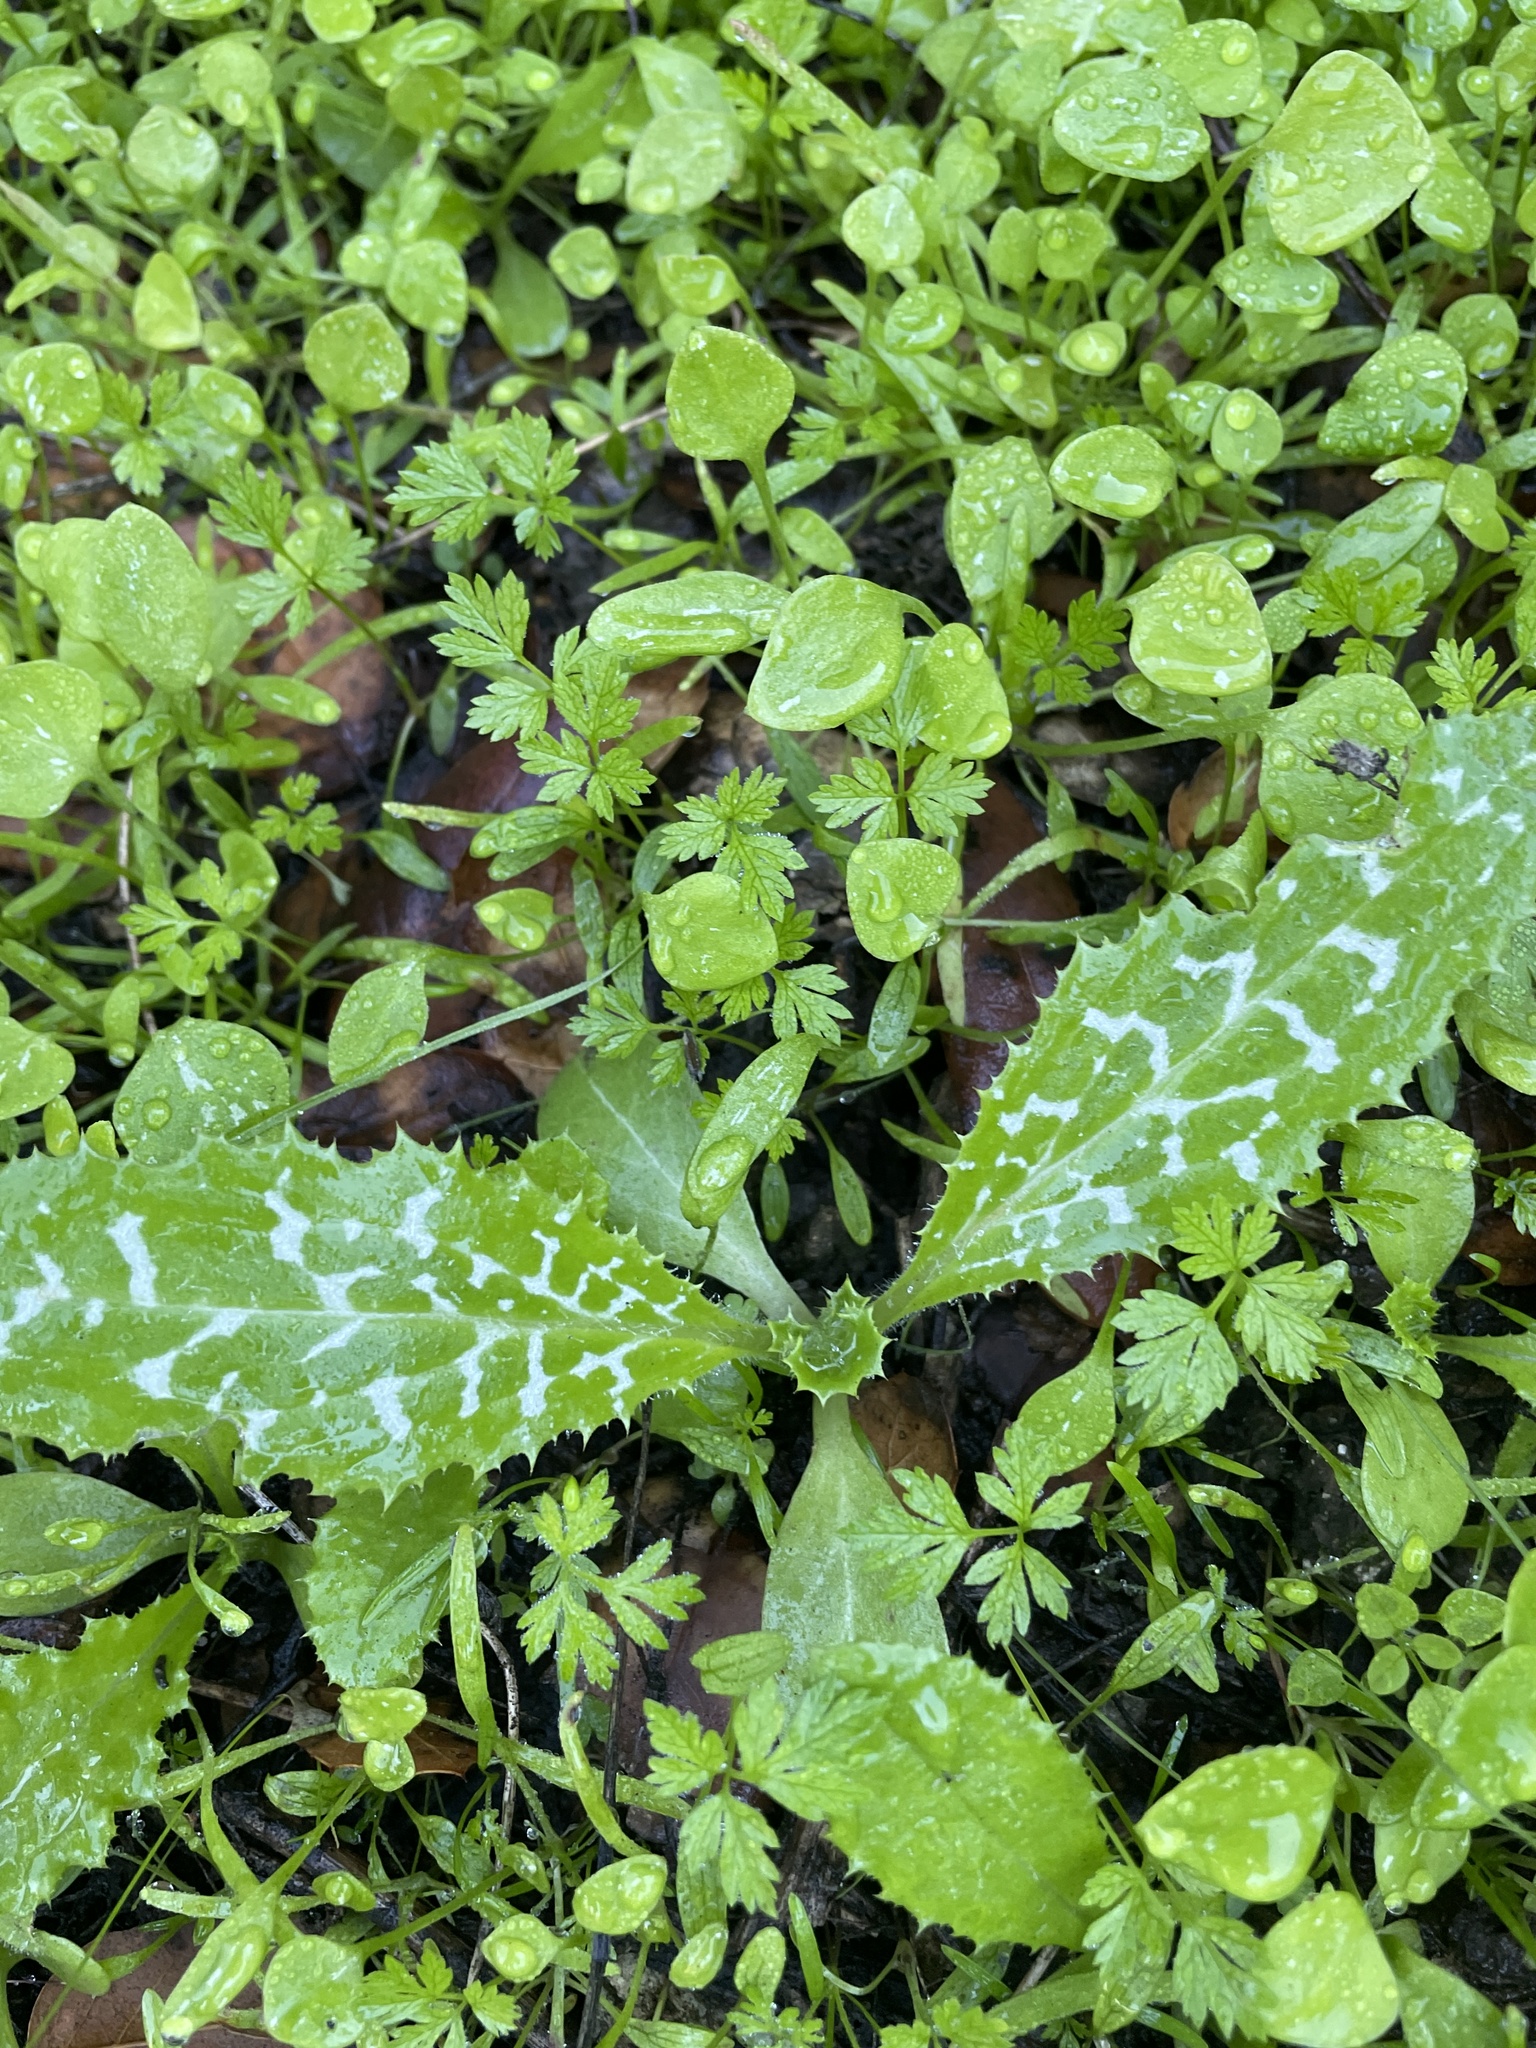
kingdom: Plantae
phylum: Tracheophyta
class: Magnoliopsida
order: Asterales
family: Asteraceae
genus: Silybum
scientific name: Silybum marianum
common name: Milk thistle
